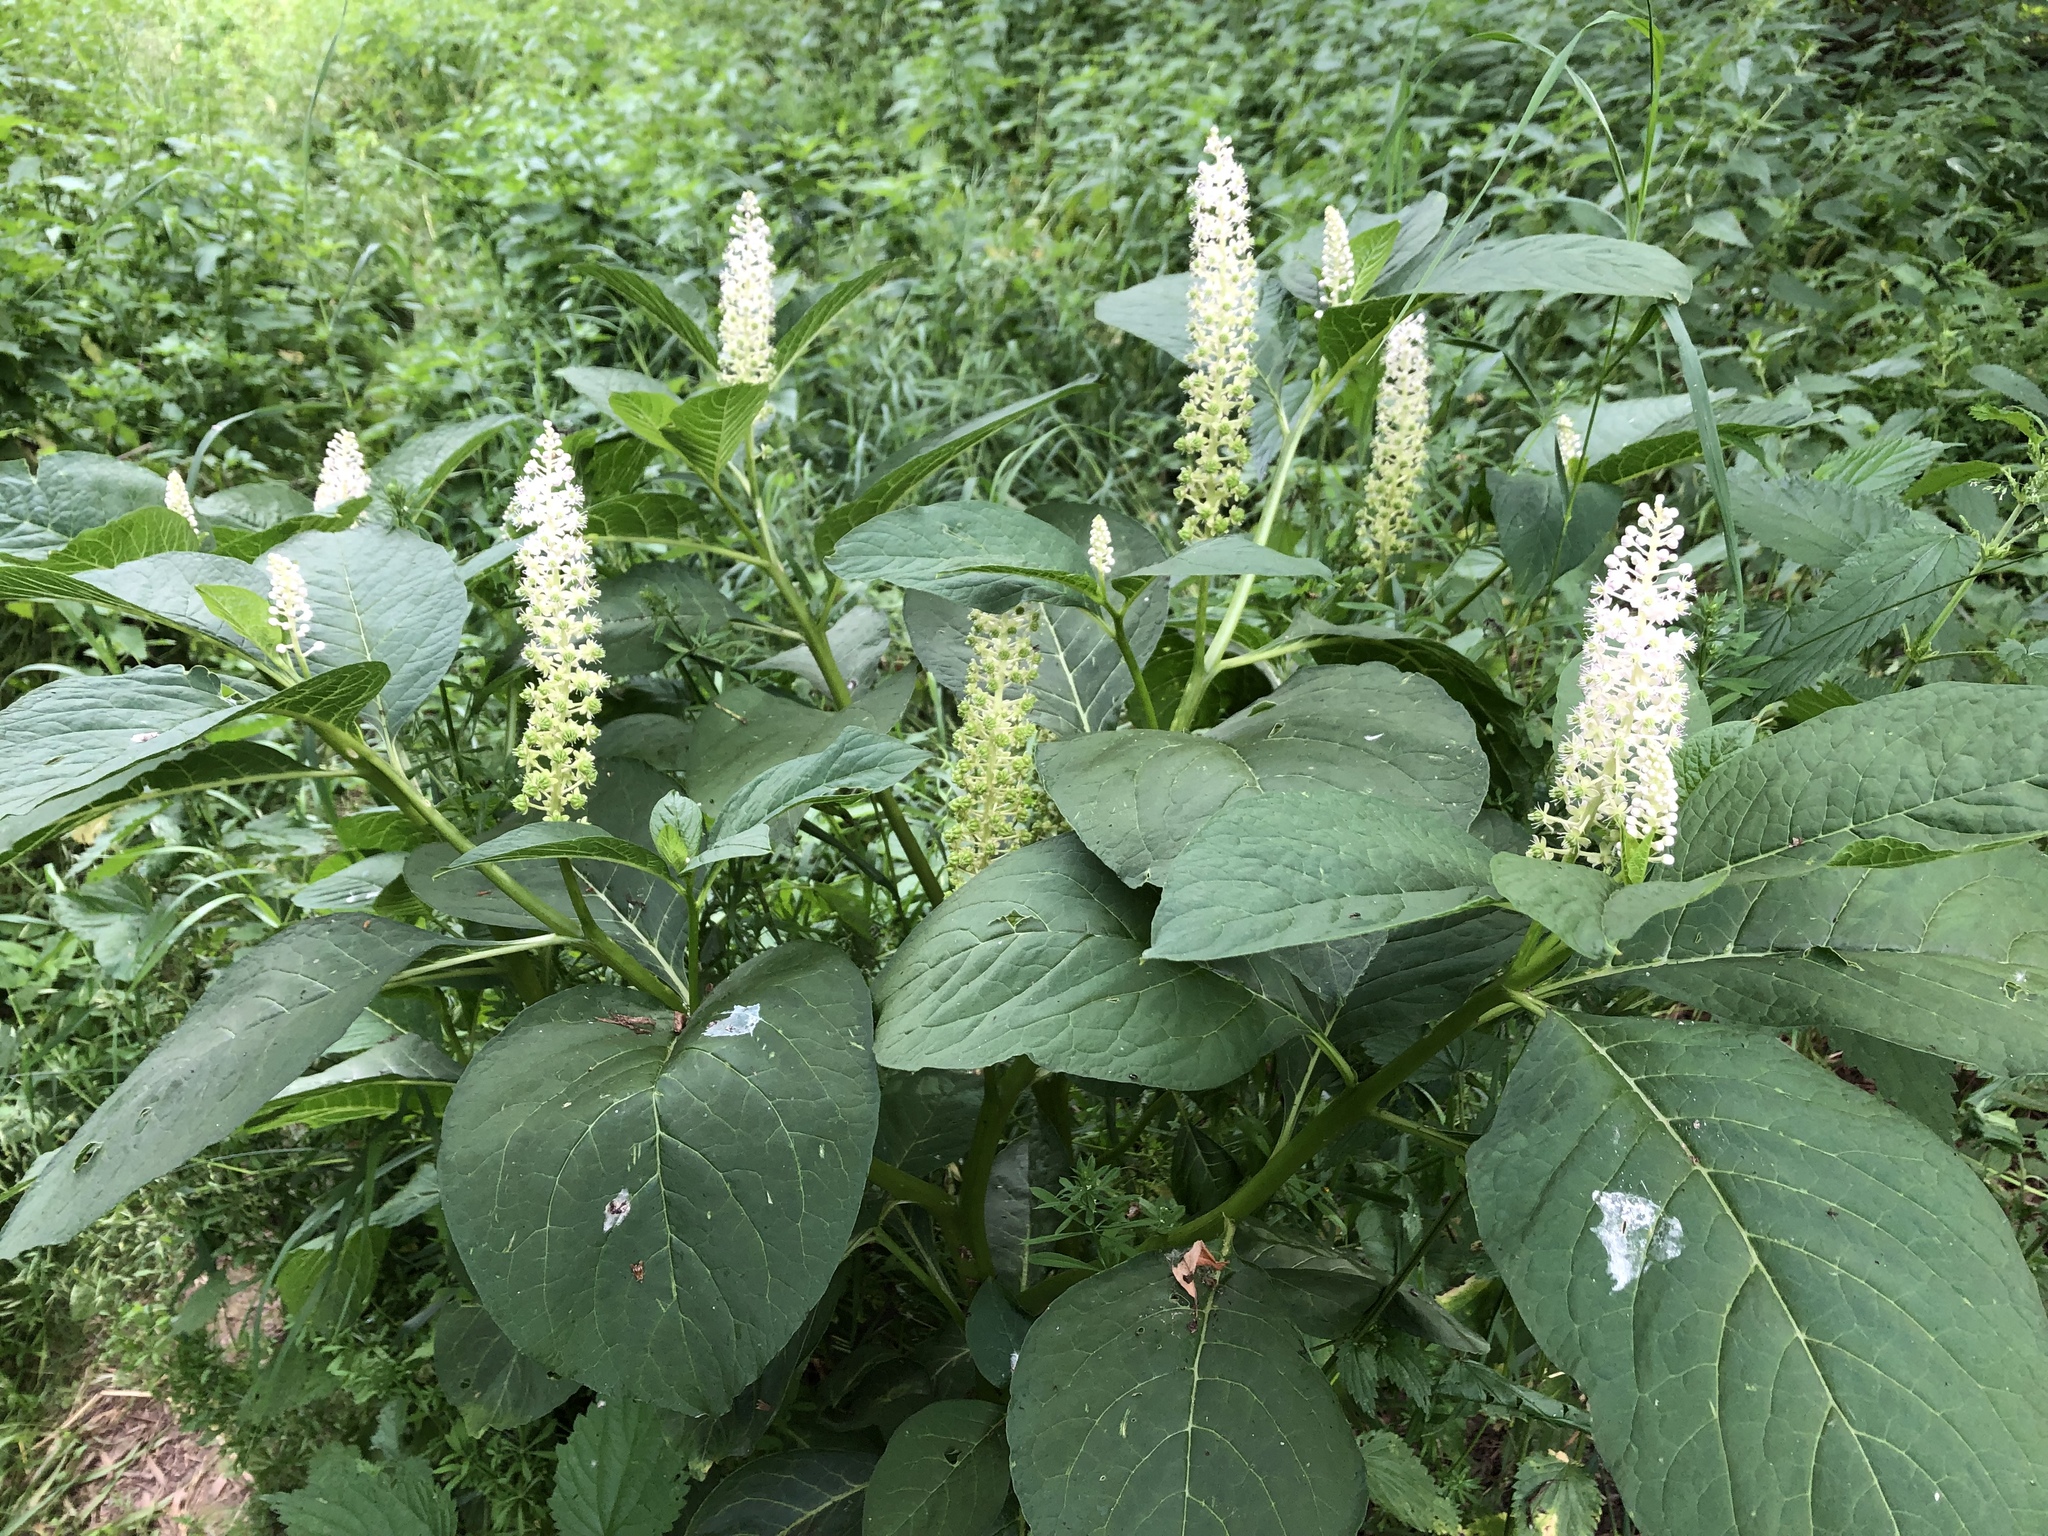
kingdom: Plantae
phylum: Tracheophyta
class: Magnoliopsida
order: Caryophyllales
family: Phytolaccaceae
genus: Phytolacca
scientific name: Phytolacca acinosa
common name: Indian pokeweed
